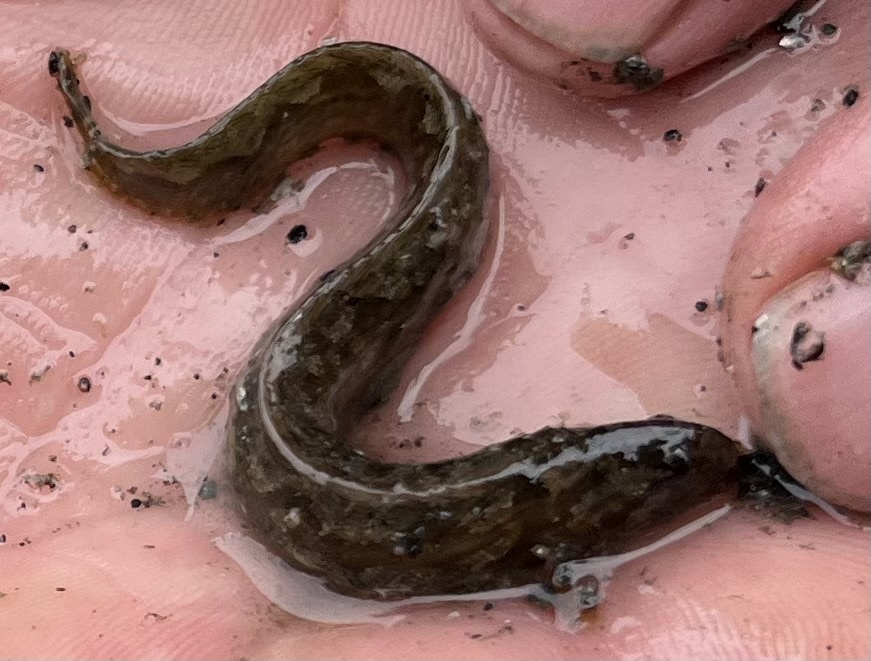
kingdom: Animalia
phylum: Chordata
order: Perciformes
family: Stichaeidae
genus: Anoplarchus
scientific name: Anoplarchus purpurescens
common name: High cockscomb
